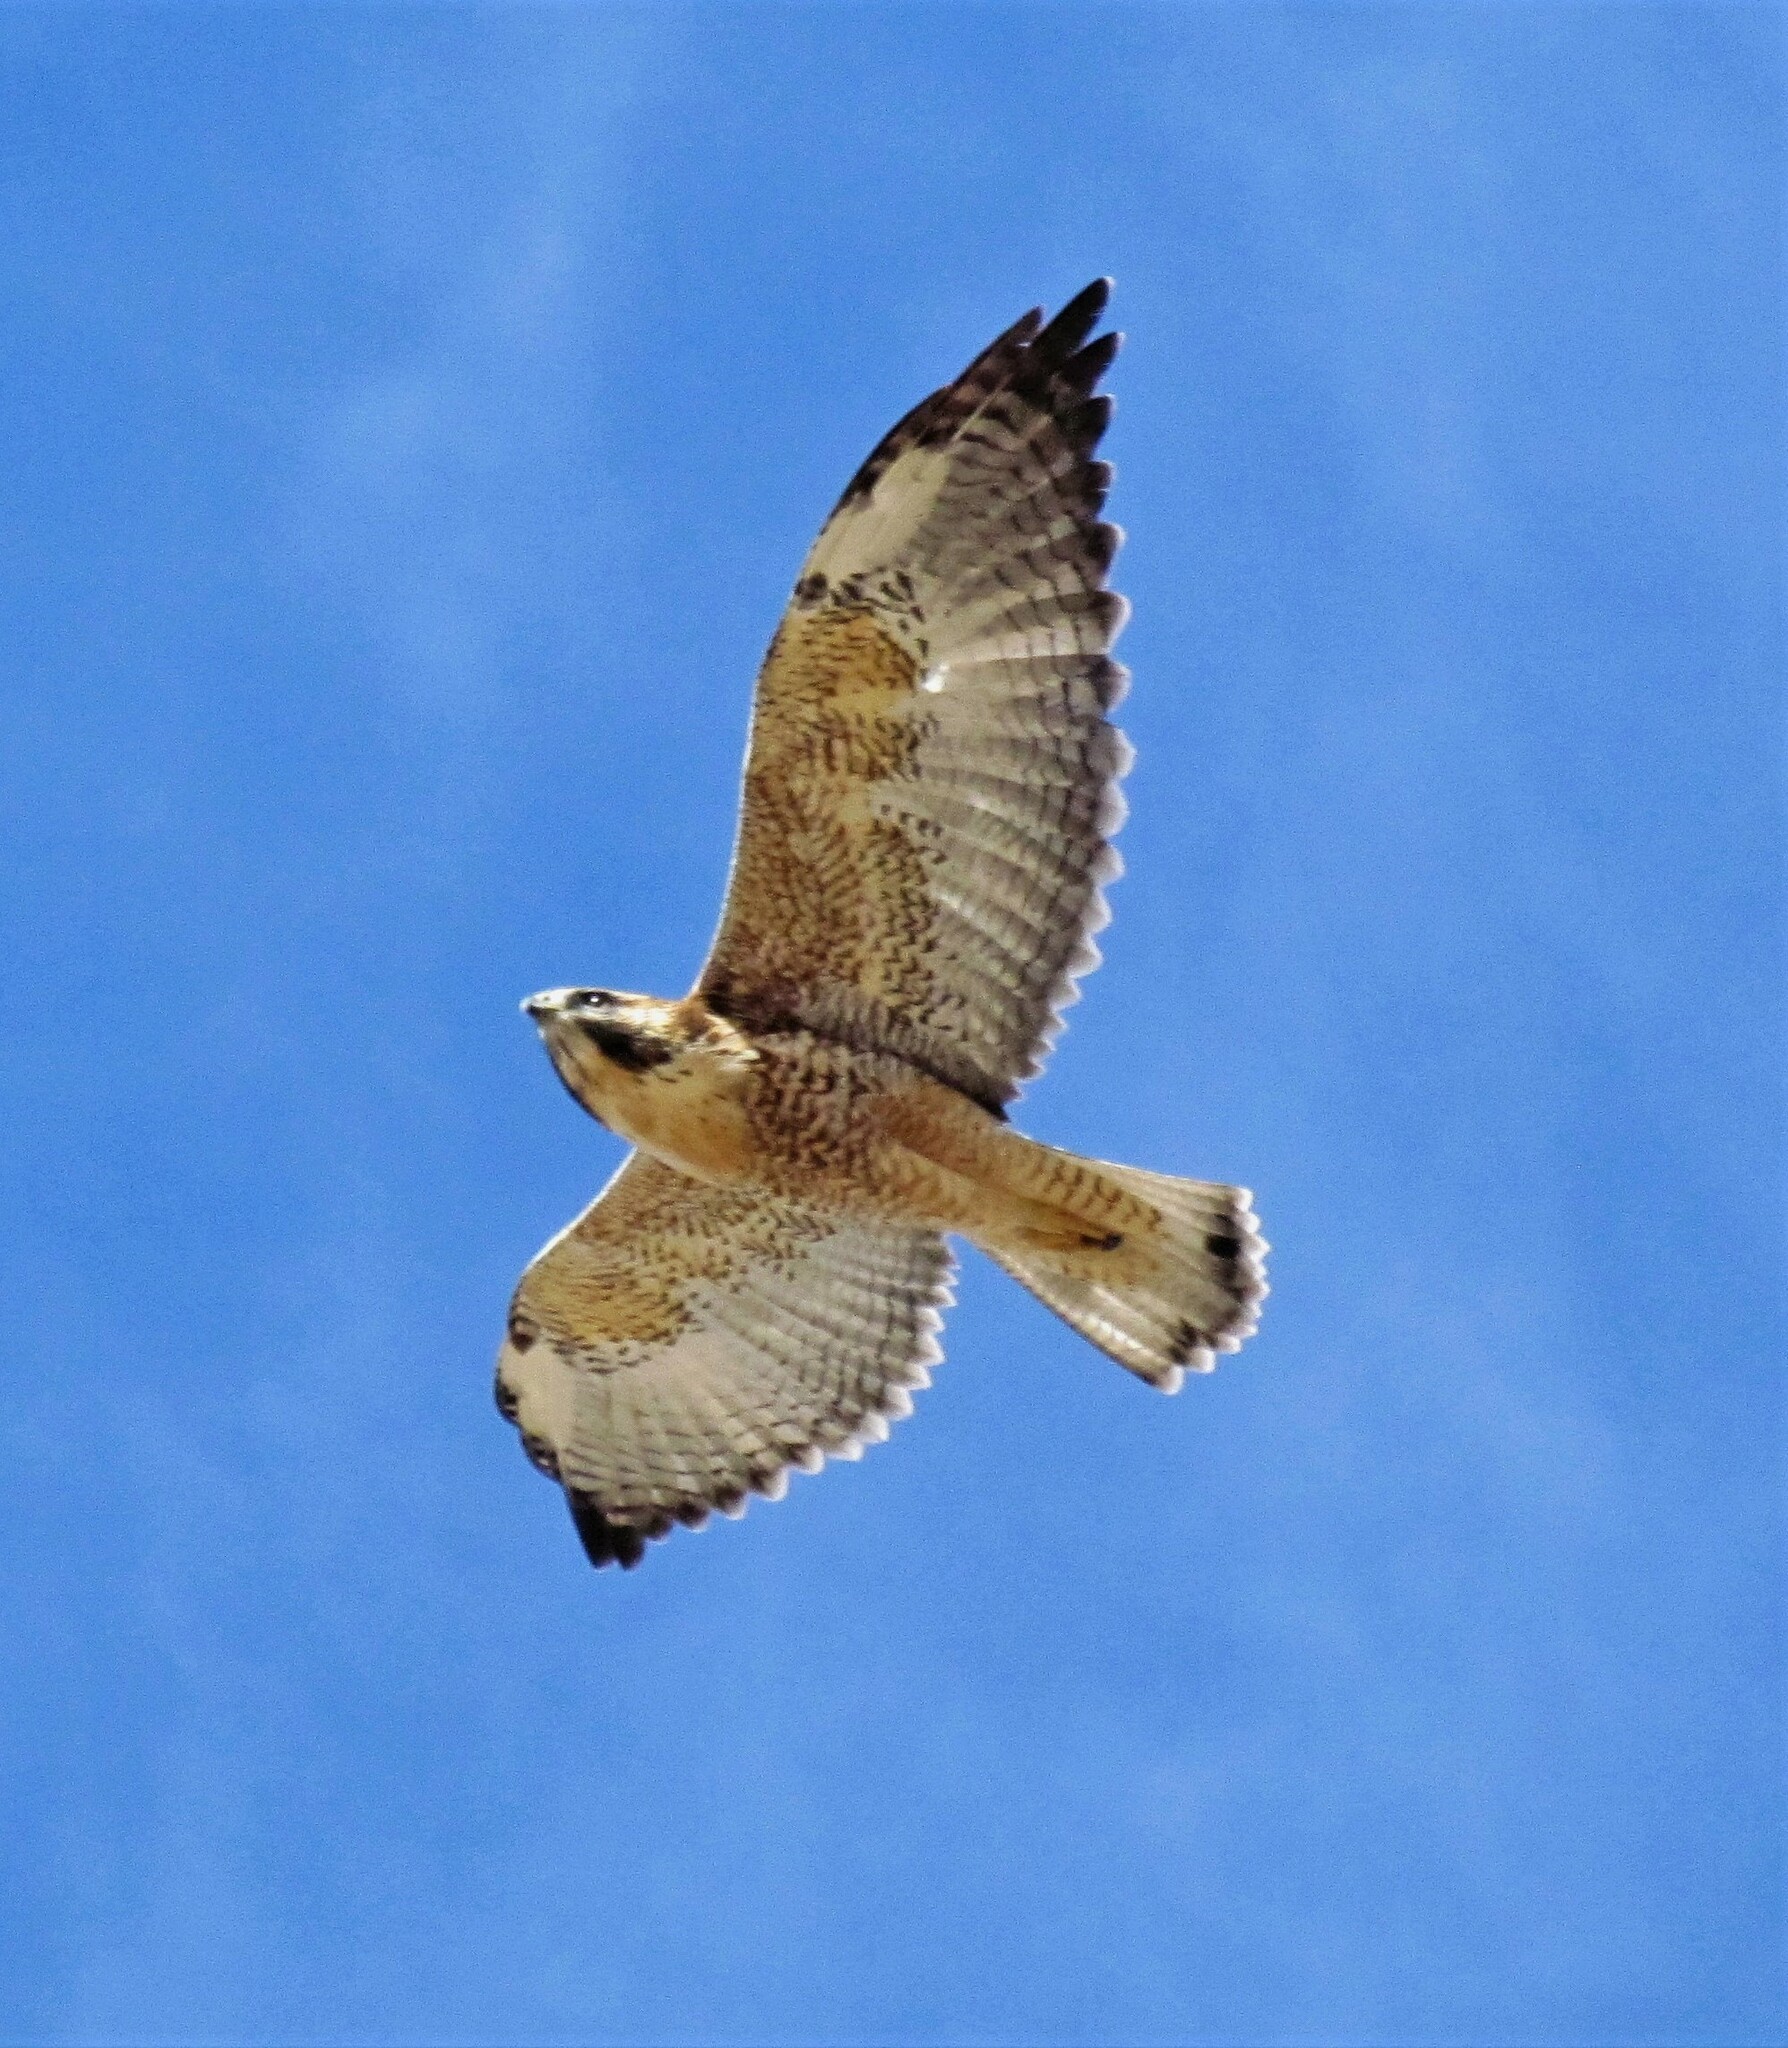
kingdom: Animalia
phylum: Chordata
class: Aves
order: Accipitriformes
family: Accipitridae
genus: Buteo
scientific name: Buteo polyosoma
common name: Variable hawk
